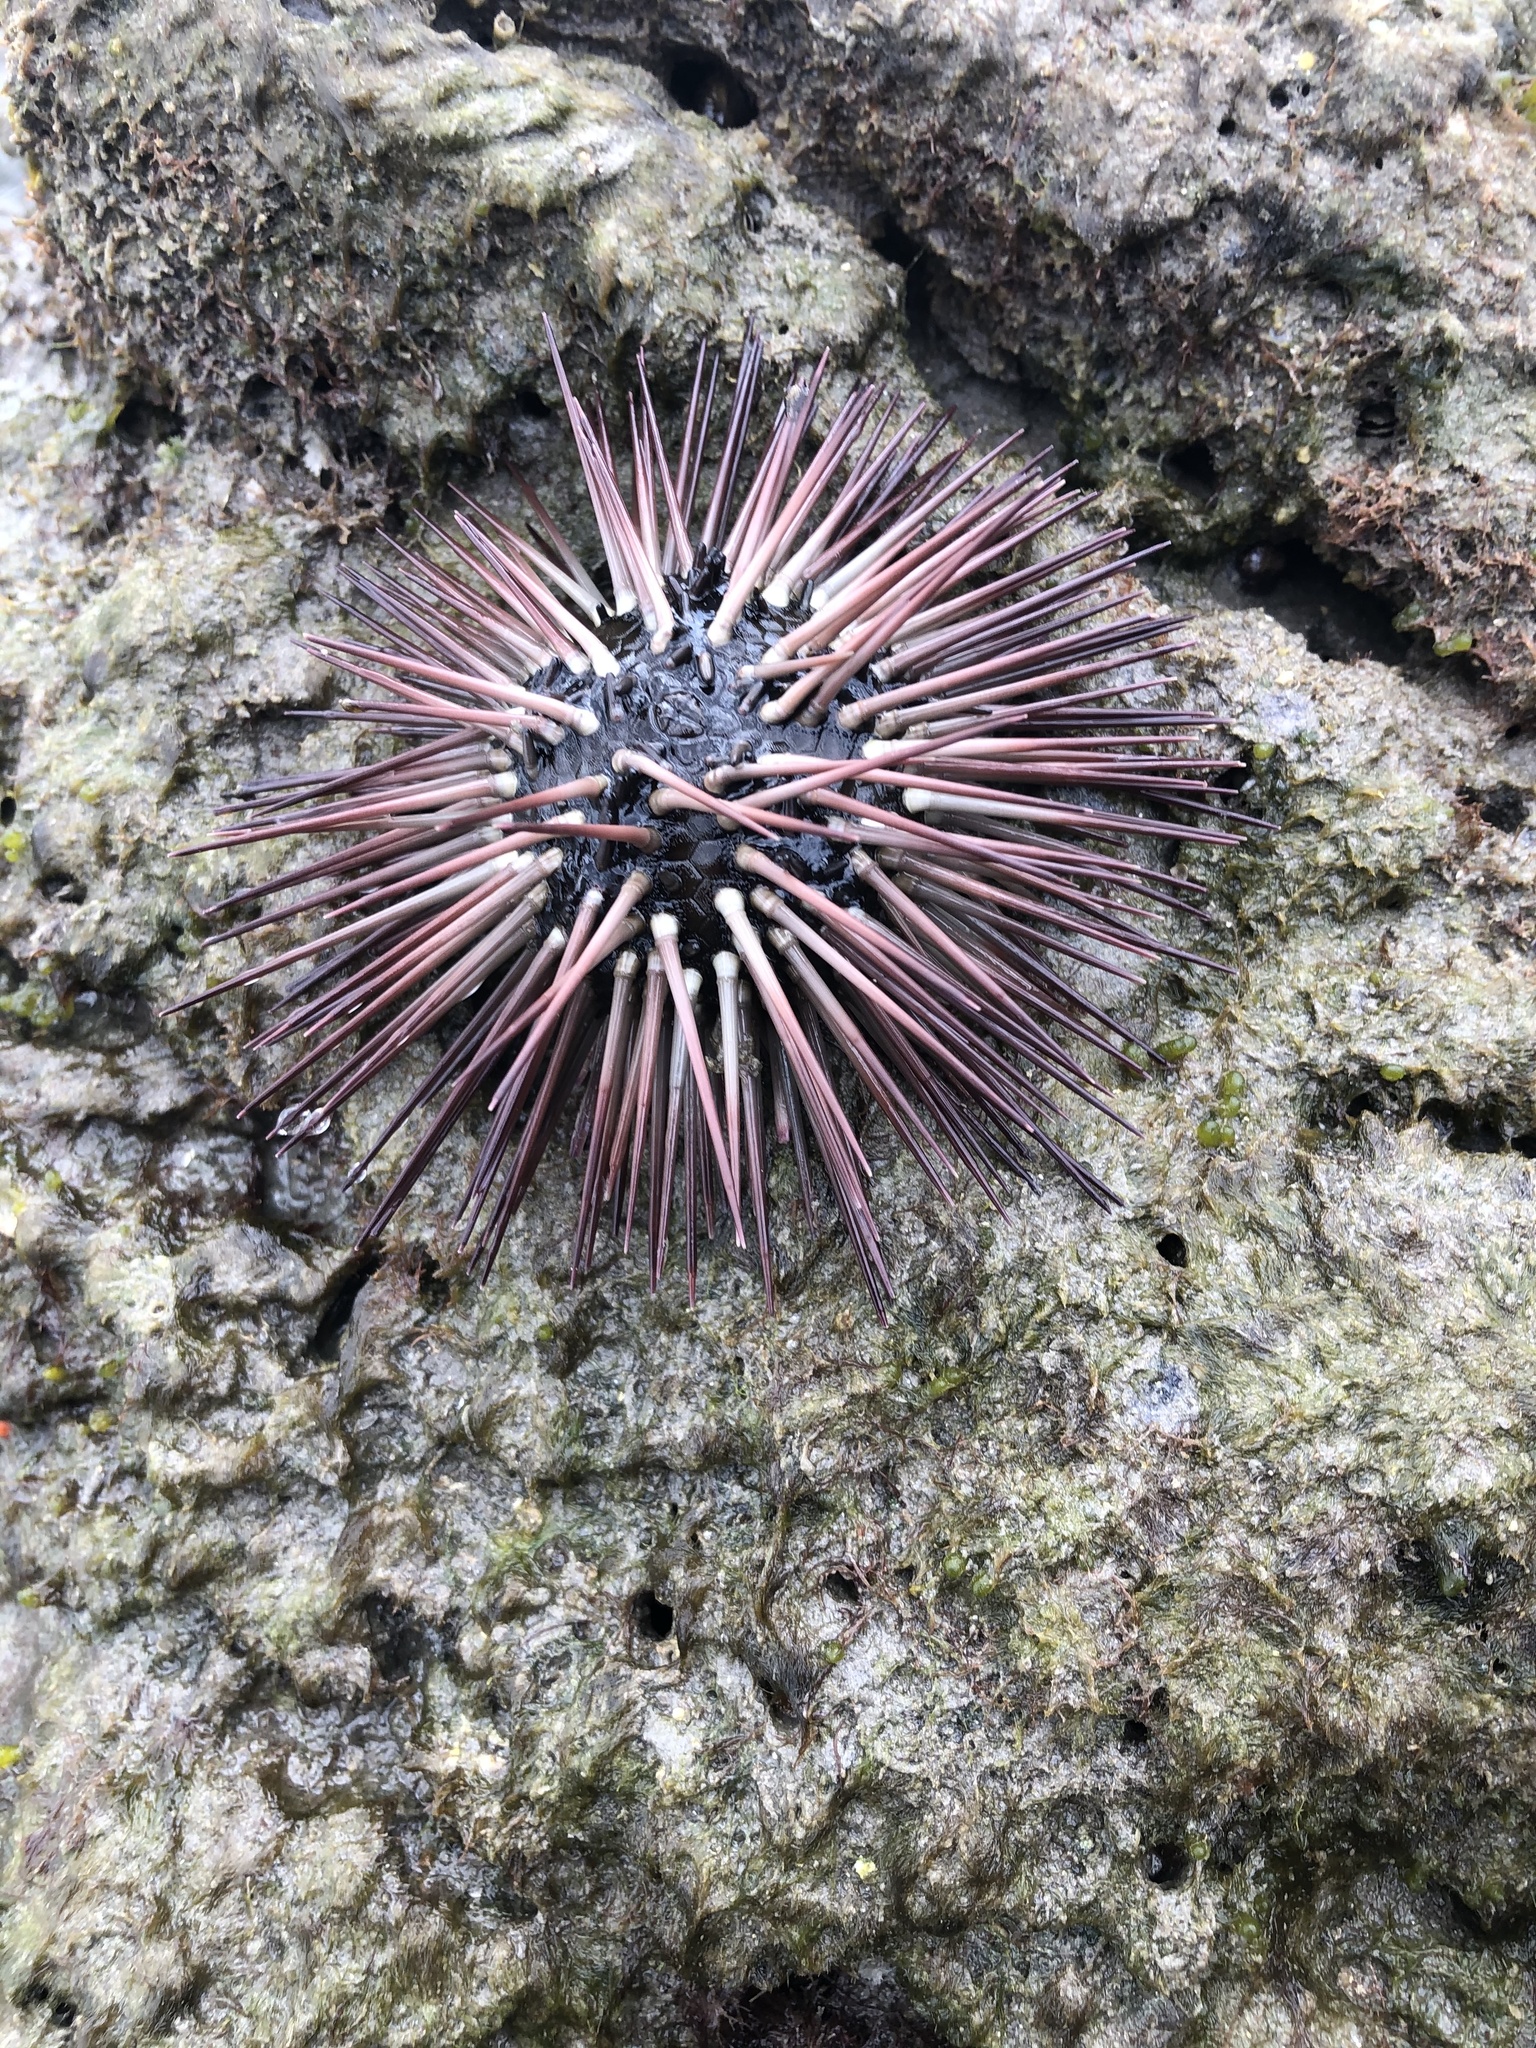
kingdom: Animalia
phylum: Echinodermata
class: Echinoidea
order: Arbacioida
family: Arbaciidae
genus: Arbacia
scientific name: Arbacia punctulata
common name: Purple-spined sea urchin
